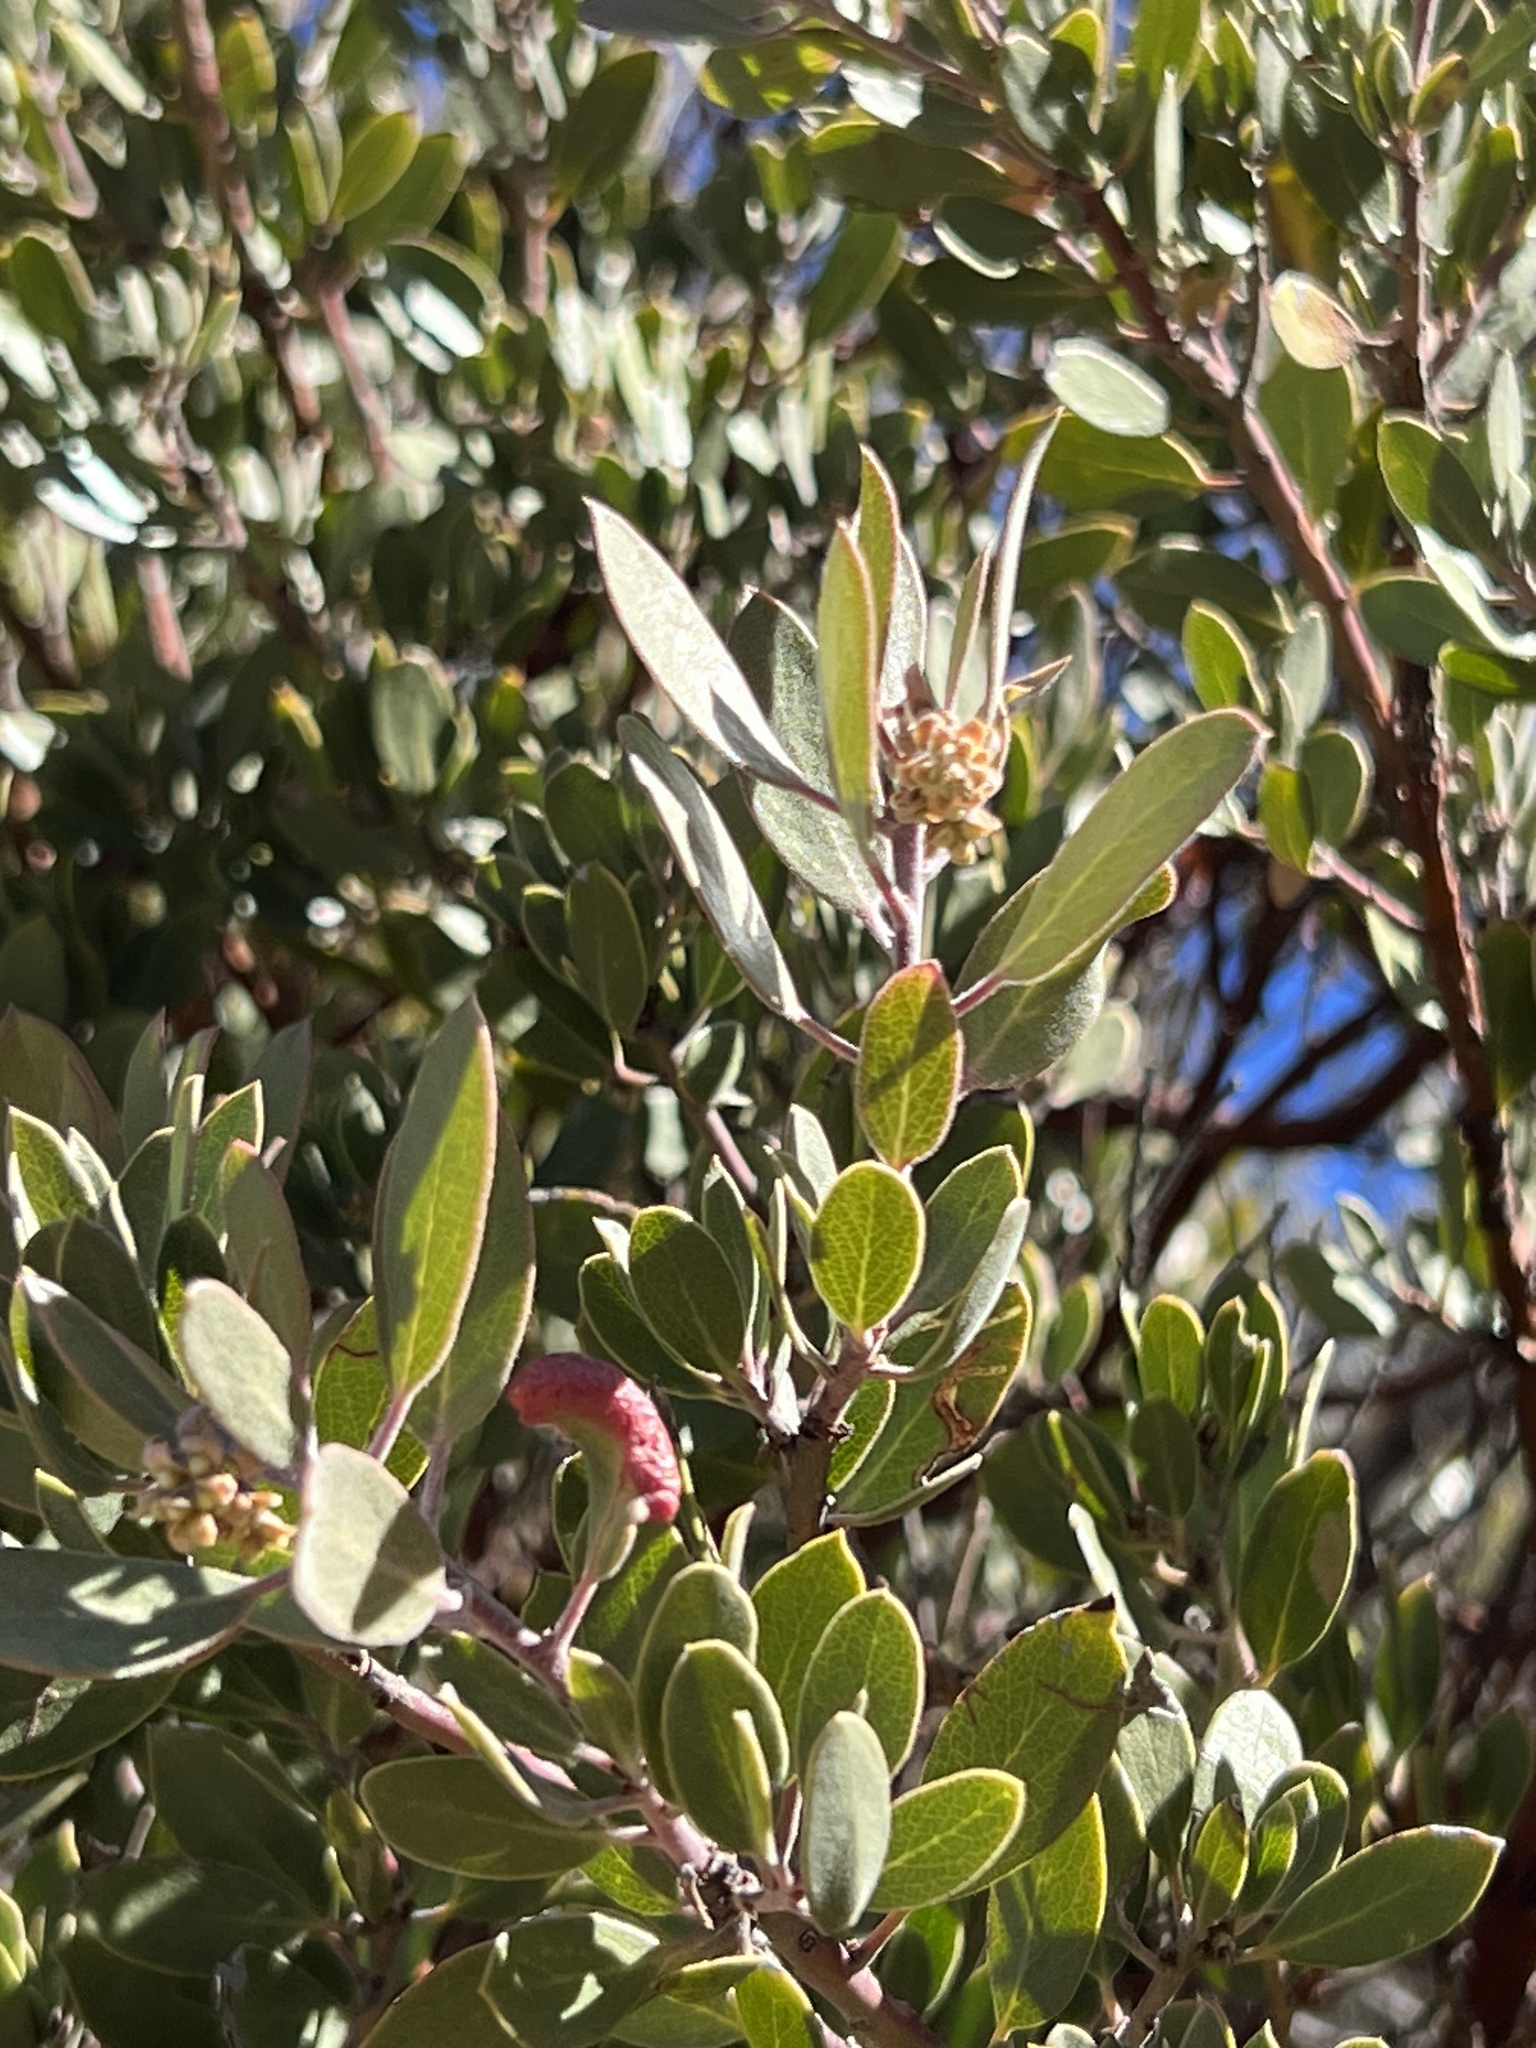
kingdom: Plantae
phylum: Tracheophyta
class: Magnoliopsida
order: Ericales
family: Ericaceae
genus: Arctostaphylos
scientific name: Arctostaphylos pungens
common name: Mexican manzanita
